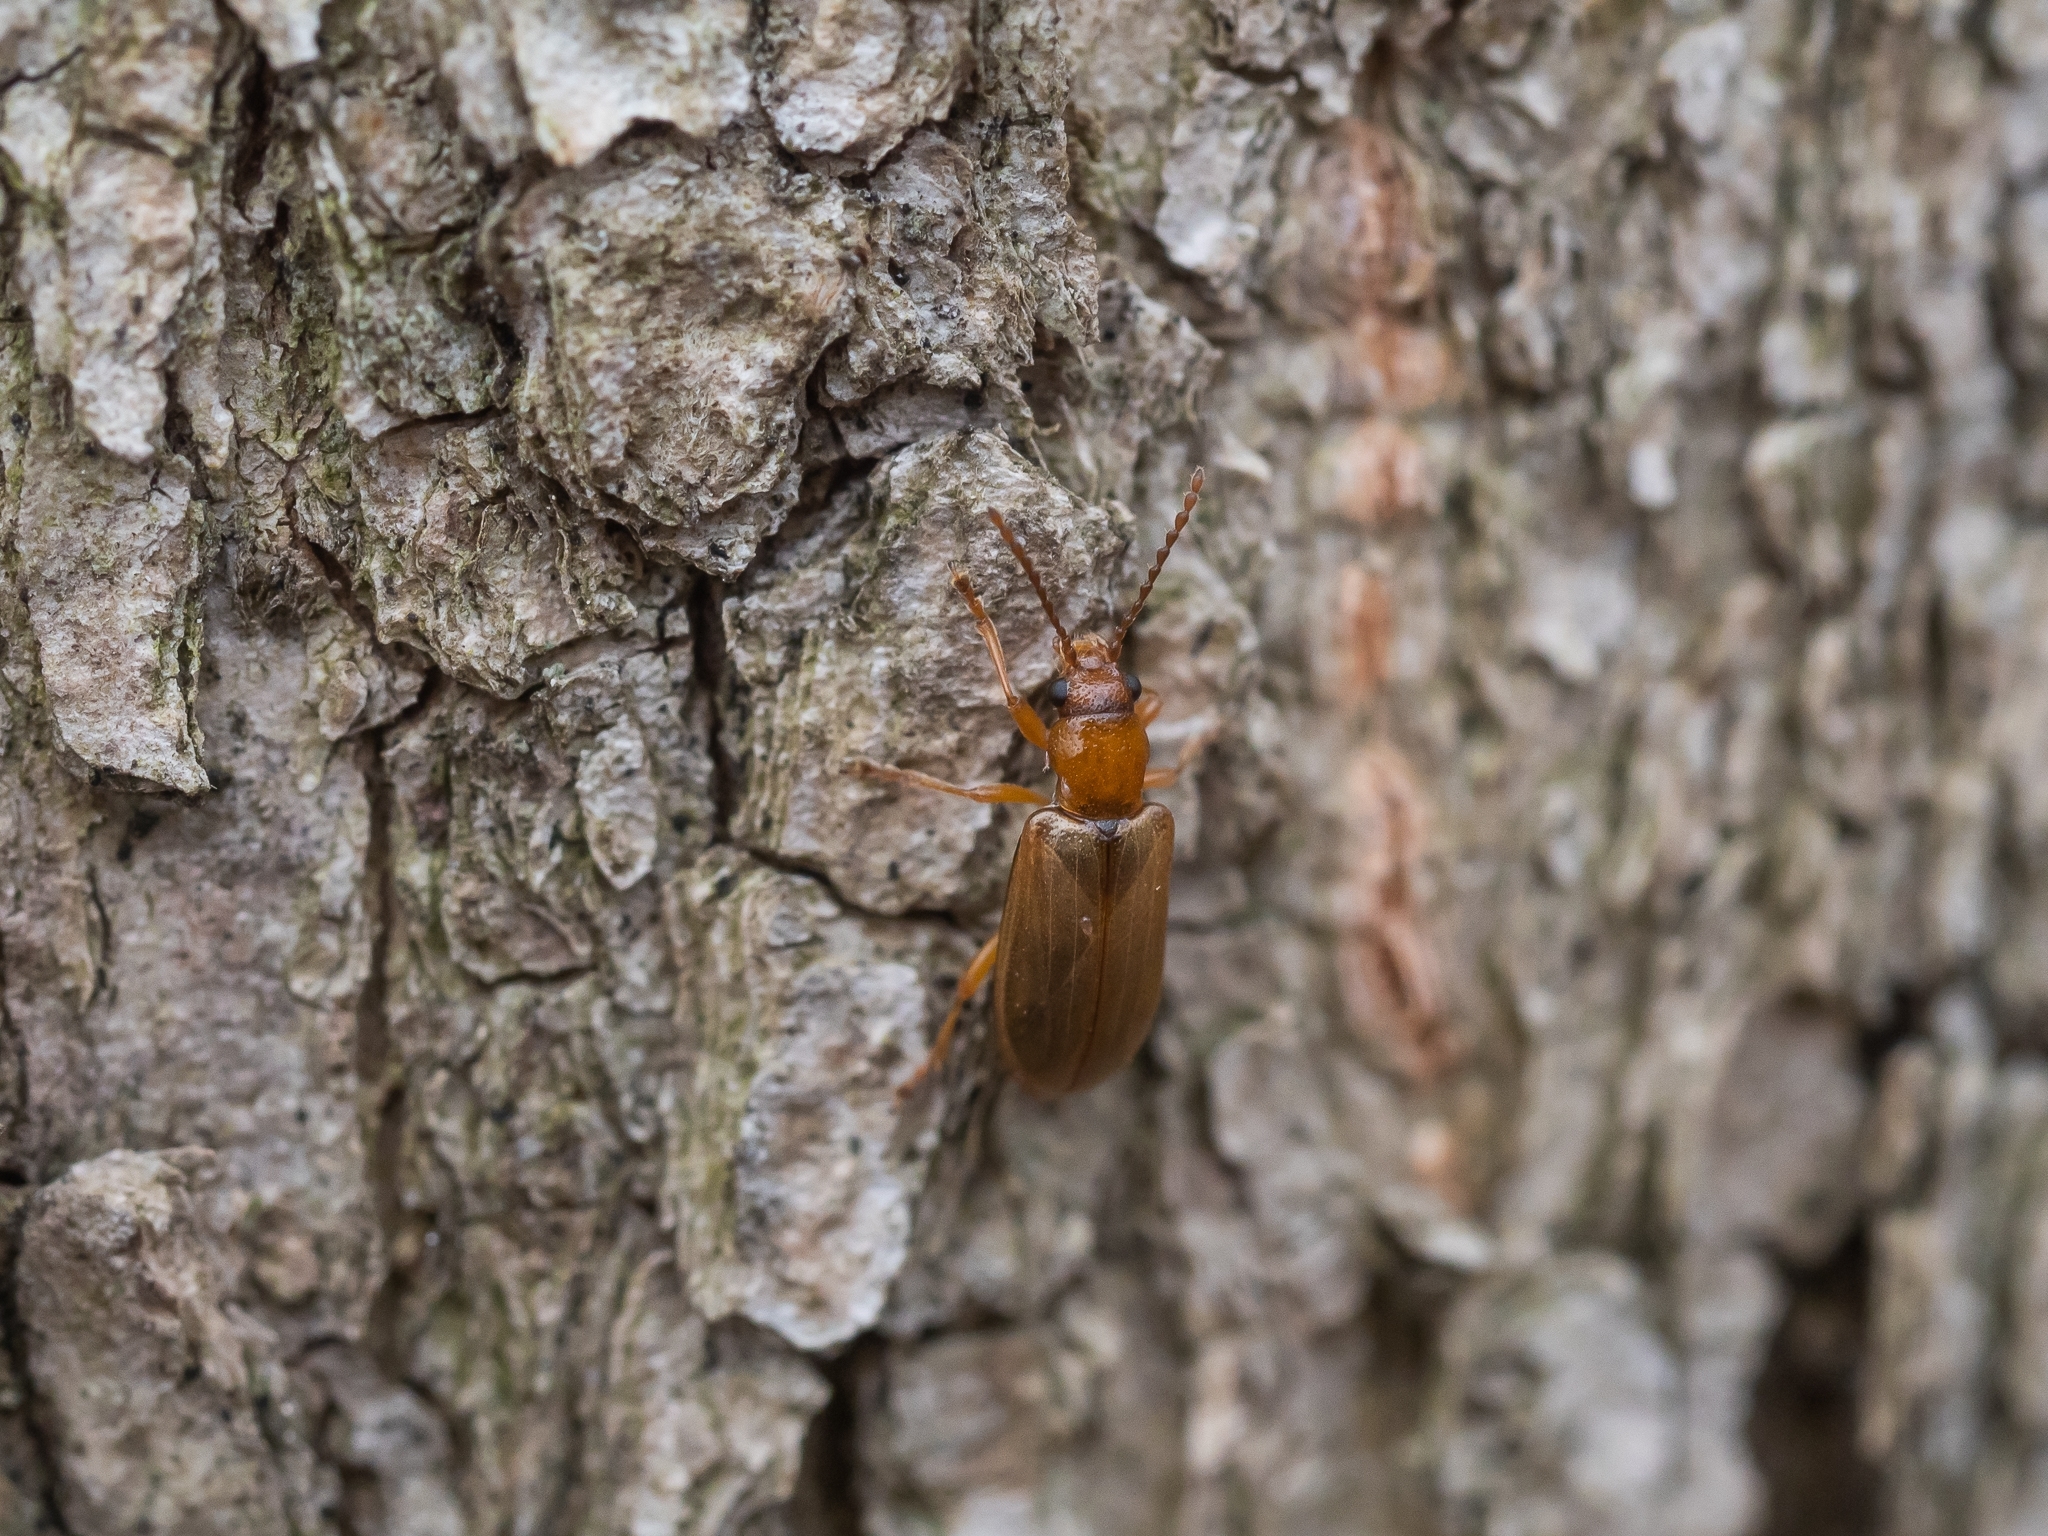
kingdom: Animalia
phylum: Arthropoda
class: Insecta
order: Coleoptera
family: Orsodacnidae
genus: Orsodacne
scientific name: Orsodacne cerasi
